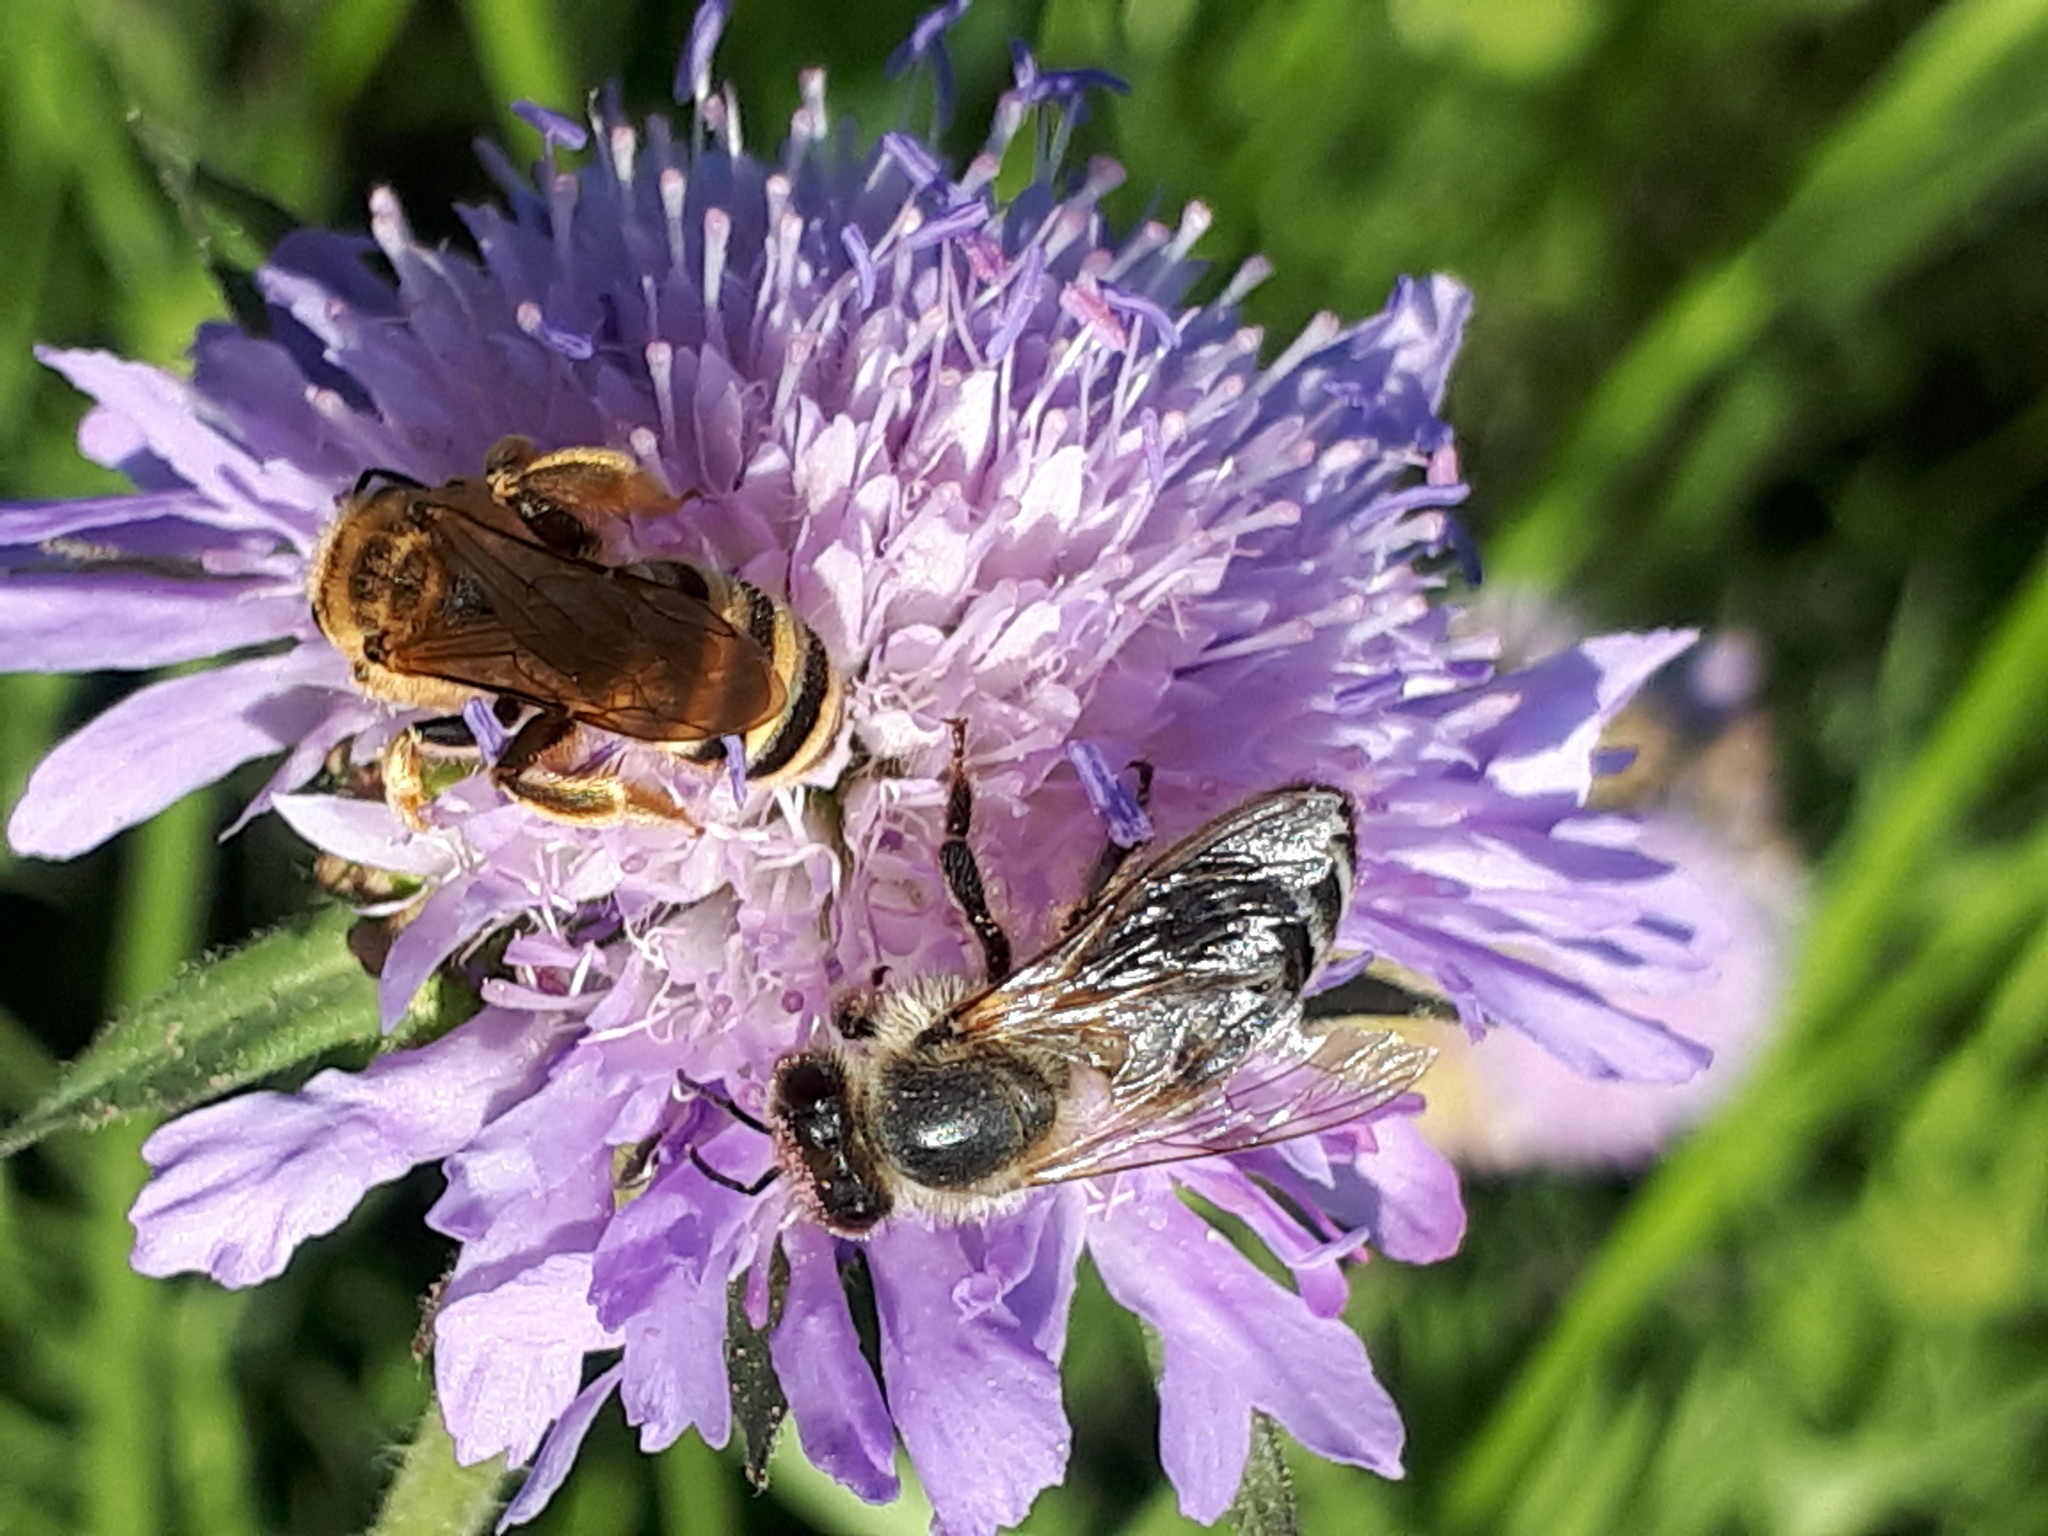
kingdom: Animalia
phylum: Arthropoda
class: Insecta
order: Hymenoptera
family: Apidae
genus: Apis
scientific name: Apis mellifera
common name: Honey bee
